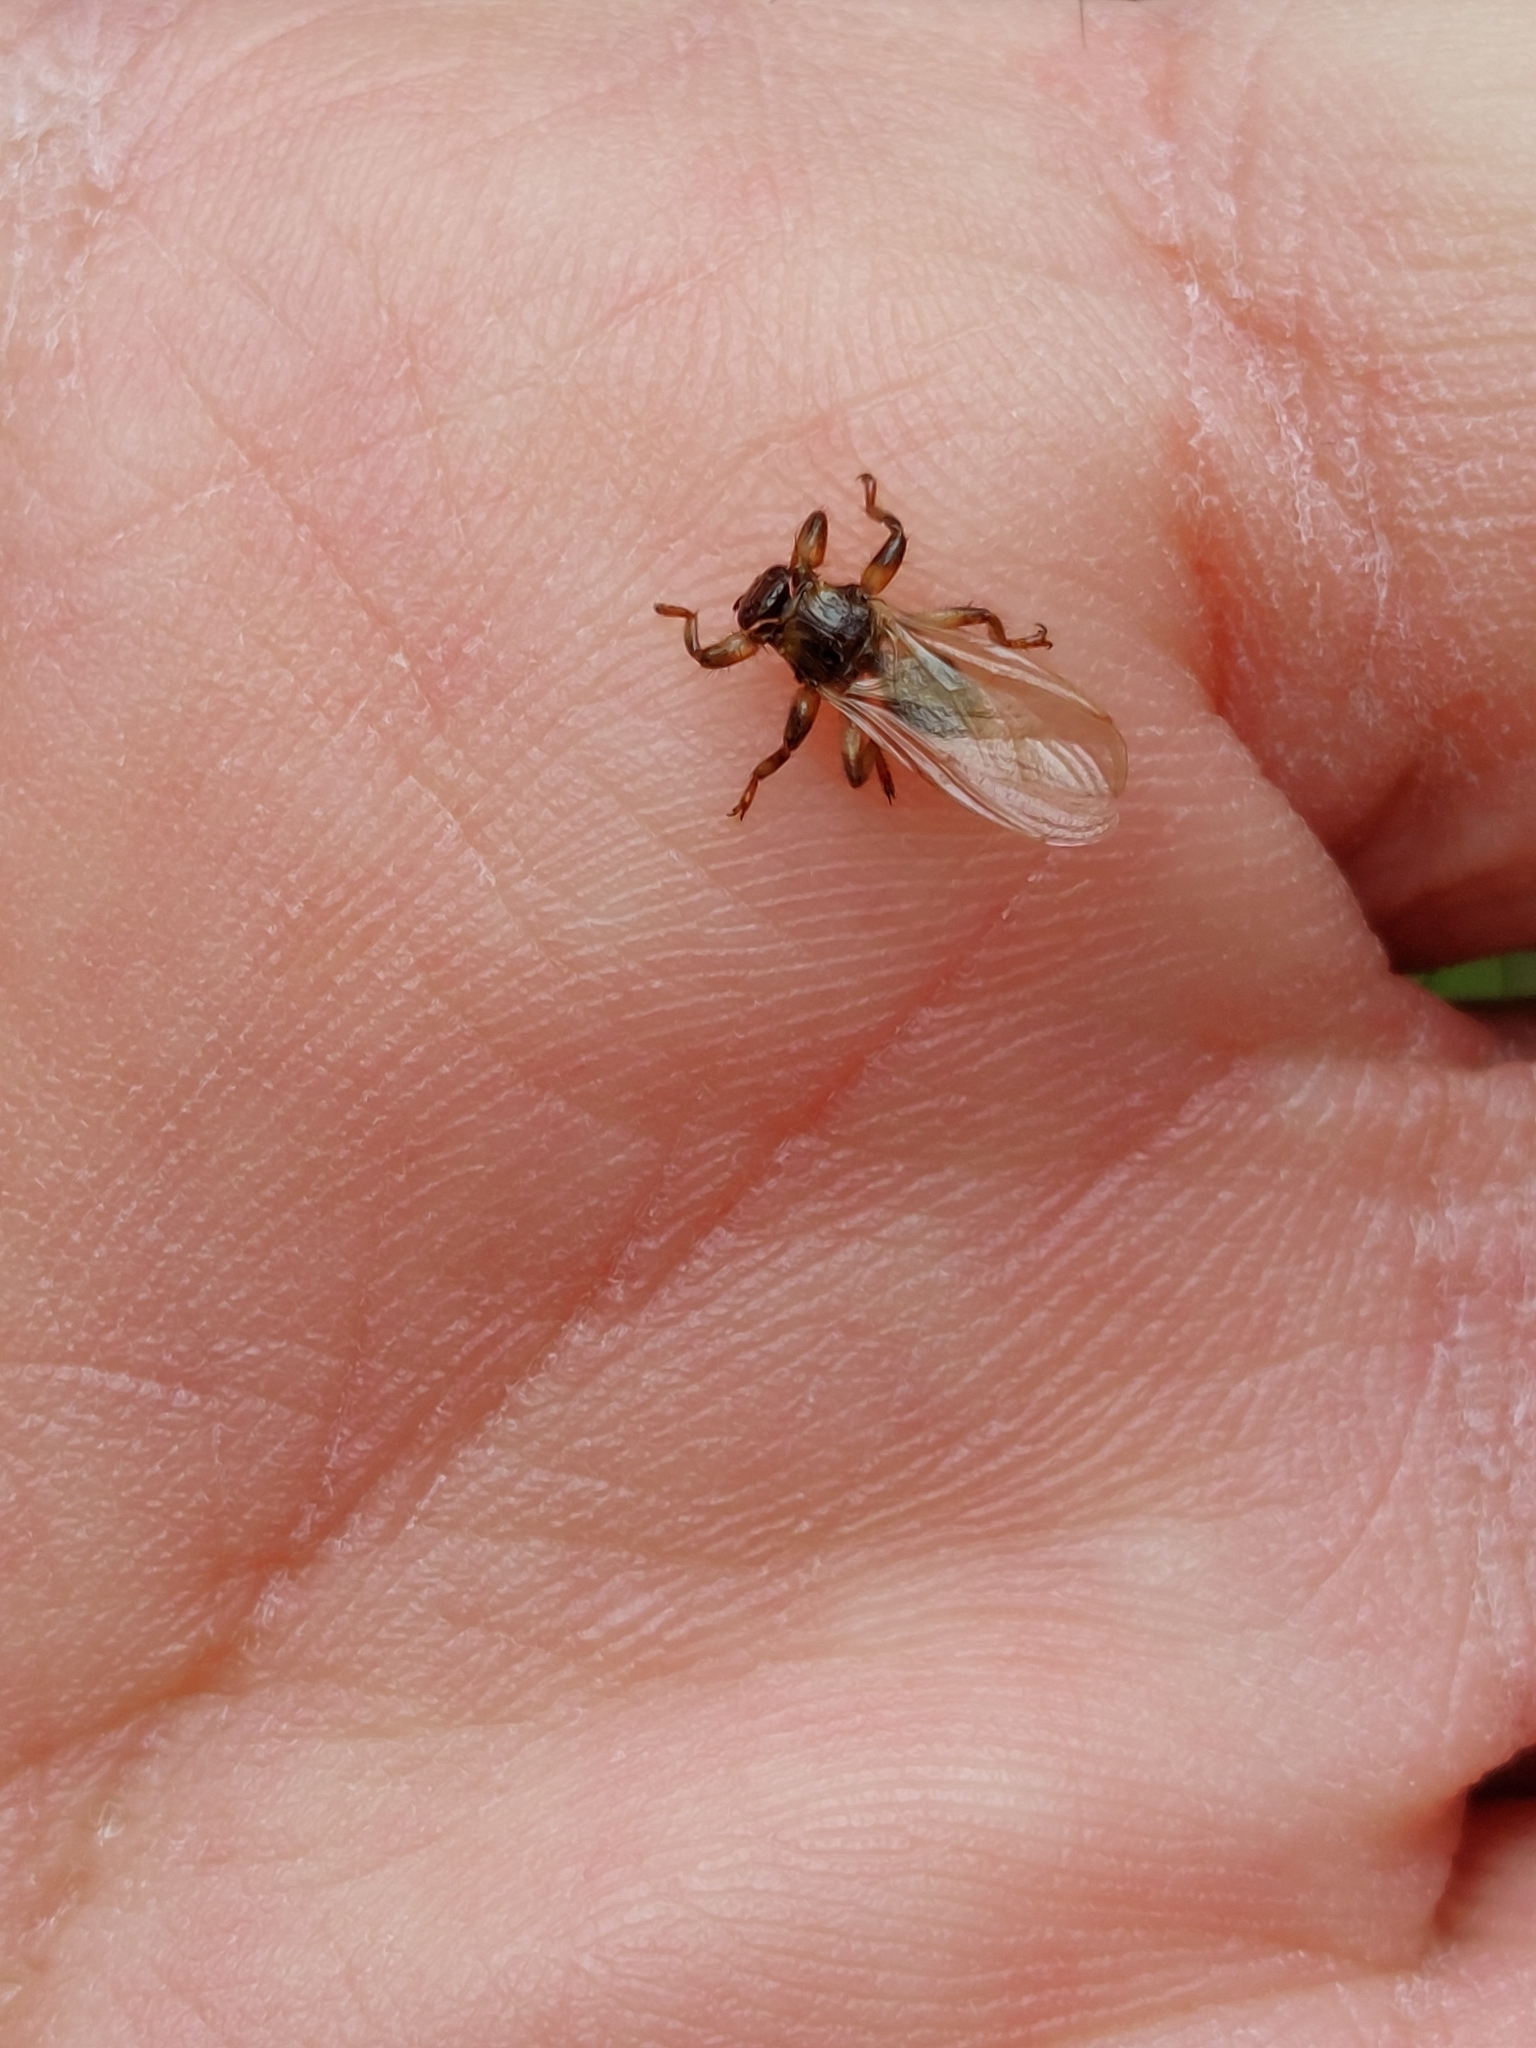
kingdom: Animalia
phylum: Arthropoda
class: Insecta
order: Diptera
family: Hippoboscidae
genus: Lipoptena
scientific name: Lipoptena cervi
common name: Deer ked
